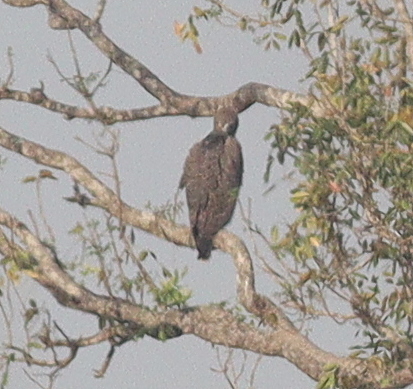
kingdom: Animalia
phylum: Chordata
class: Aves
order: Accipitriformes
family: Accipitridae
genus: Polemaetus
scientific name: Polemaetus bellicosus
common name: Martial eagle
